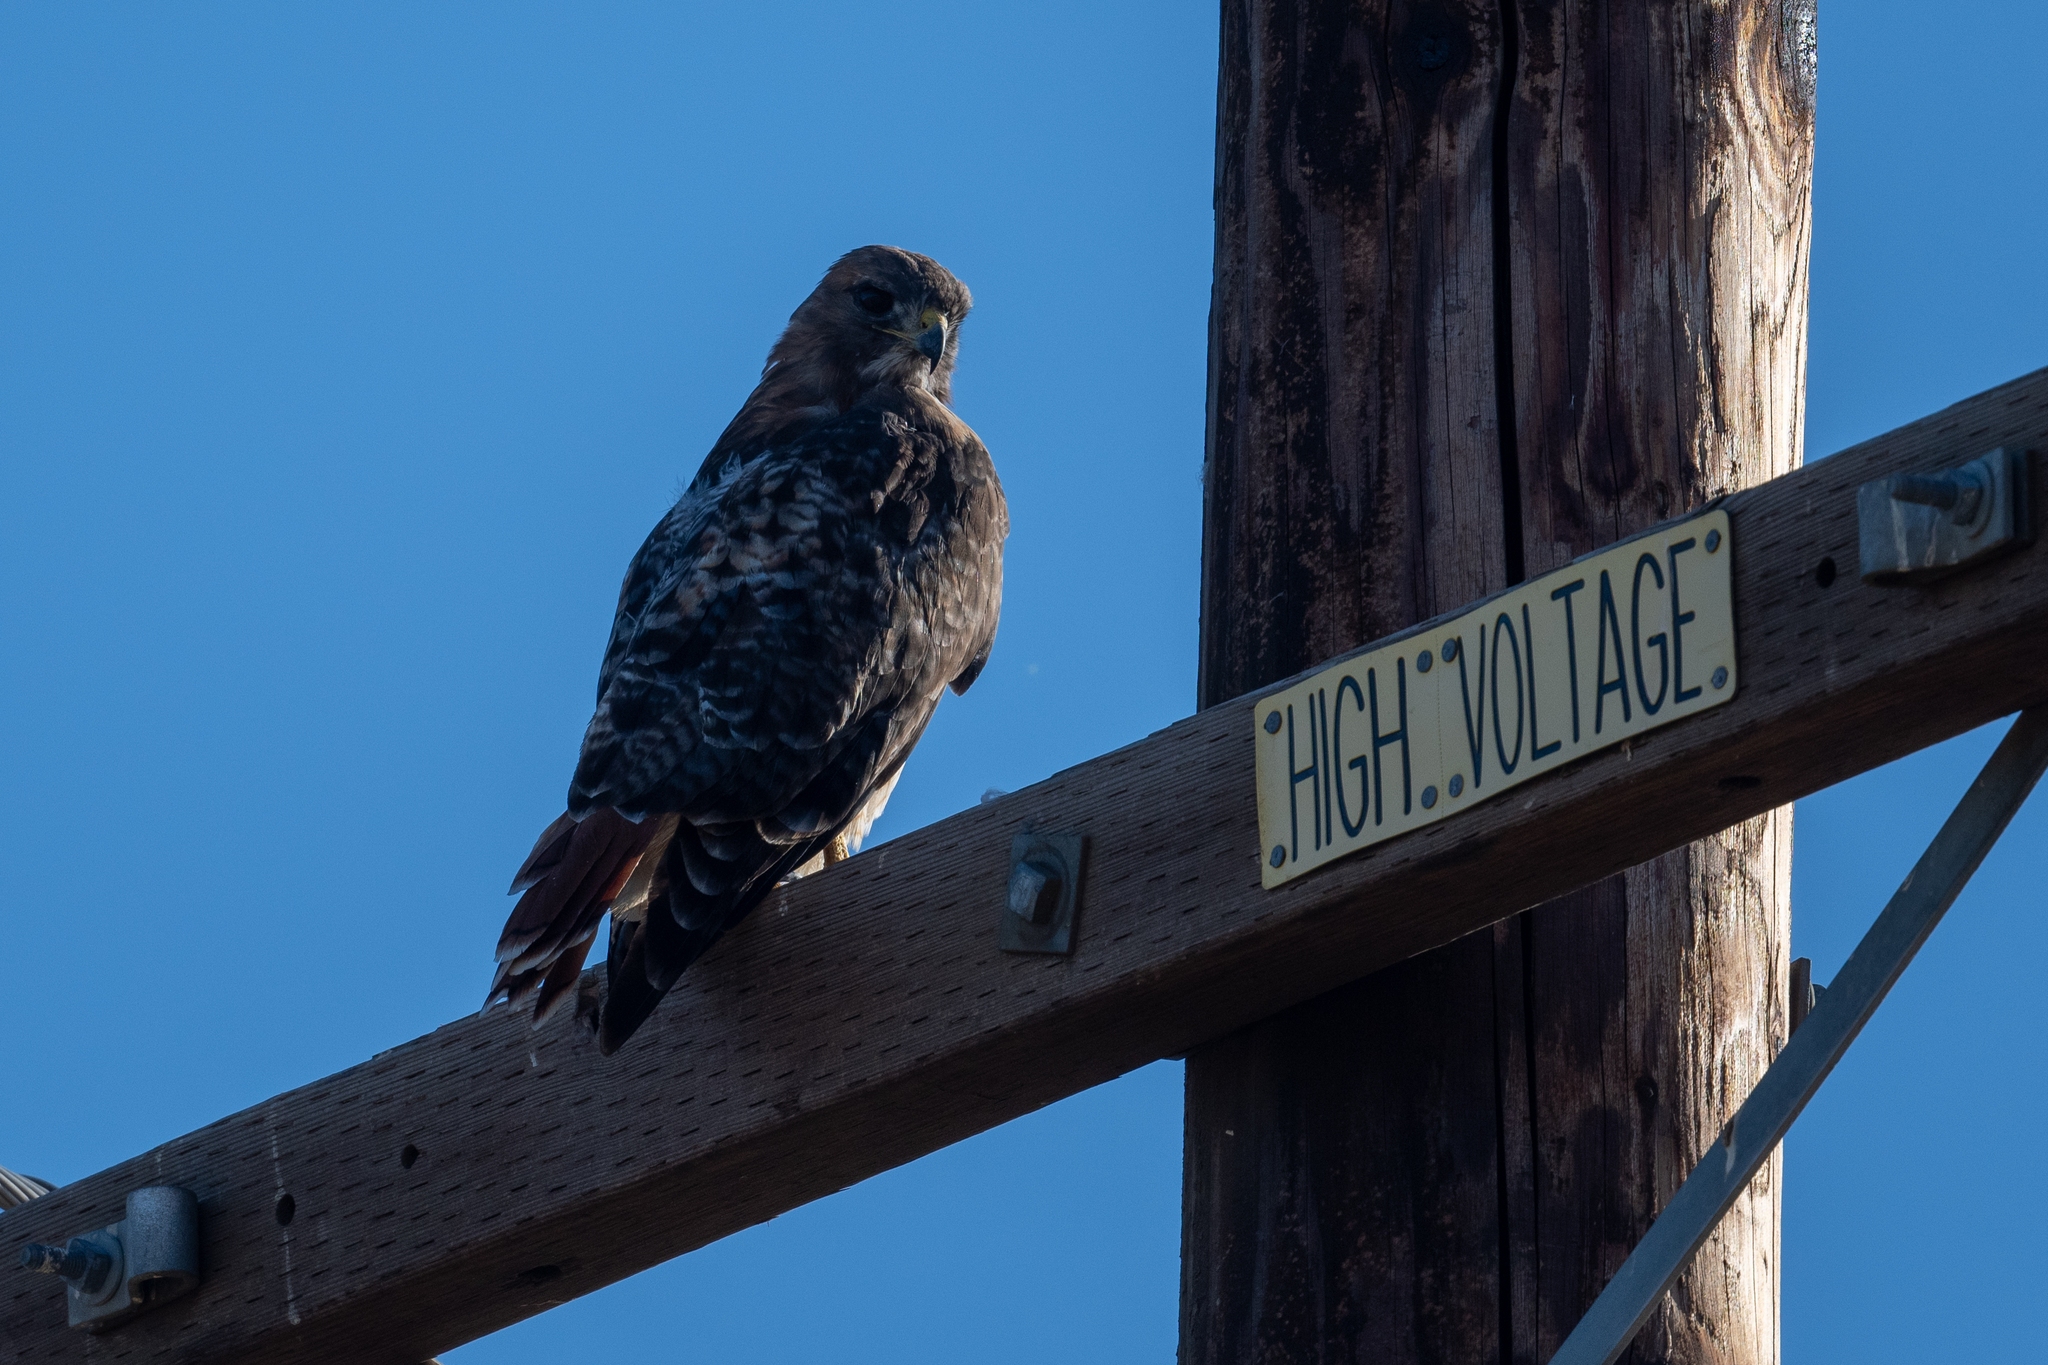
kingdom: Animalia
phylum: Chordata
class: Aves
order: Accipitriformes
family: Accipitridae
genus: Buteo
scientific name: Buteo jamaicensis
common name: Red-tailed hawk
